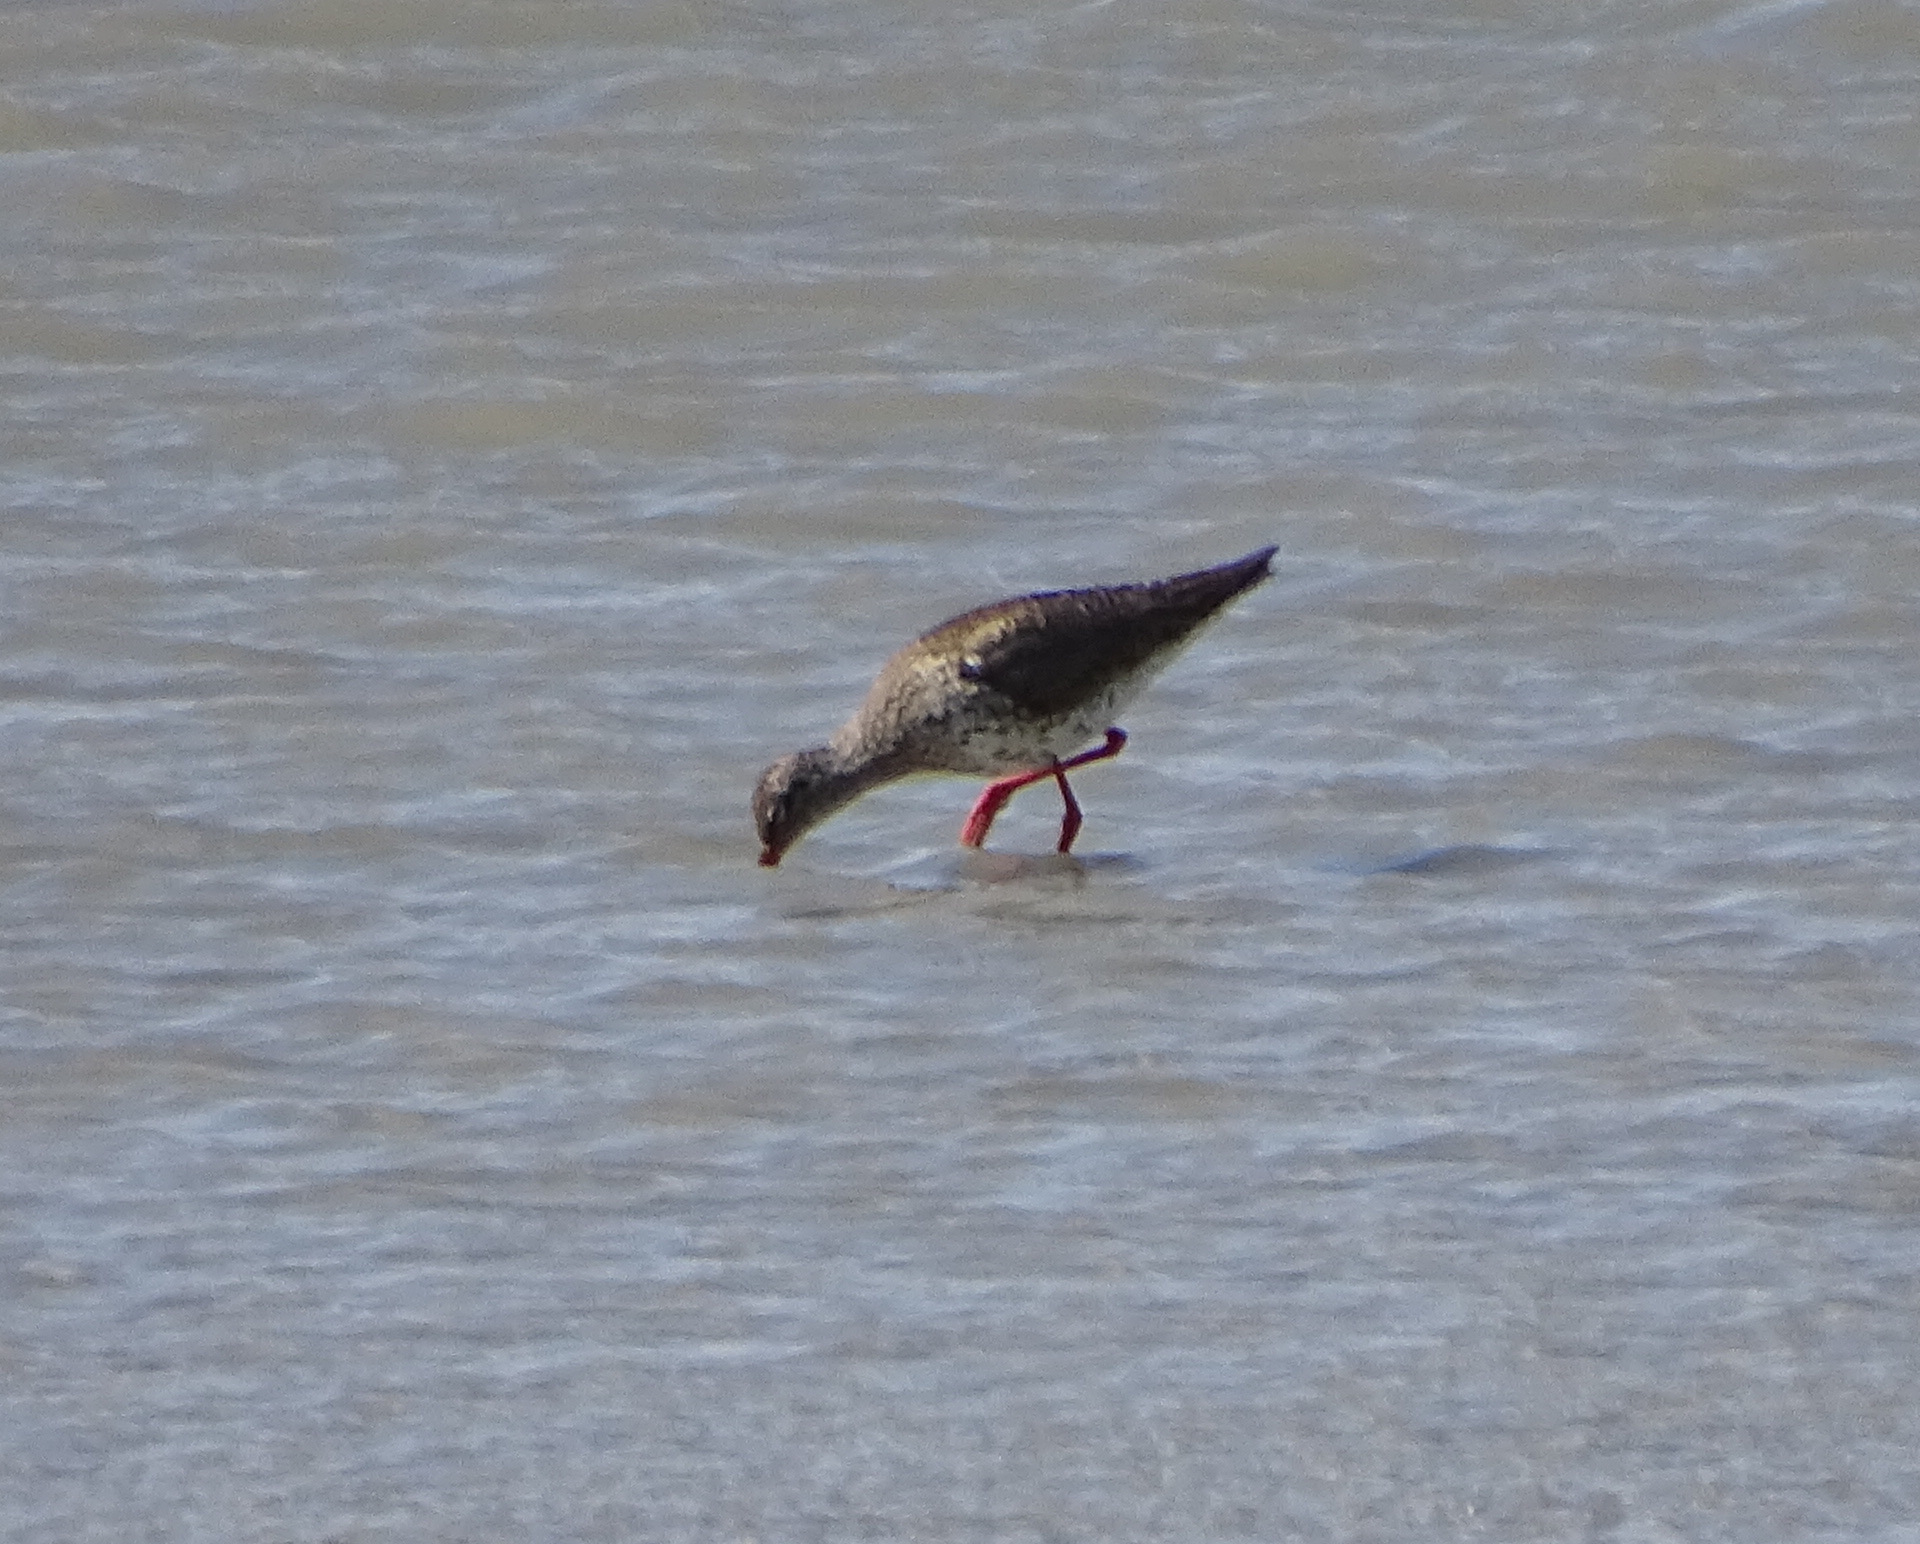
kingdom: Animalia
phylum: Chordata
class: Aves
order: Charadriiformes
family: Scolopacidae
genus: Tringa
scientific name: Tringa totanus
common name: Common redshank
